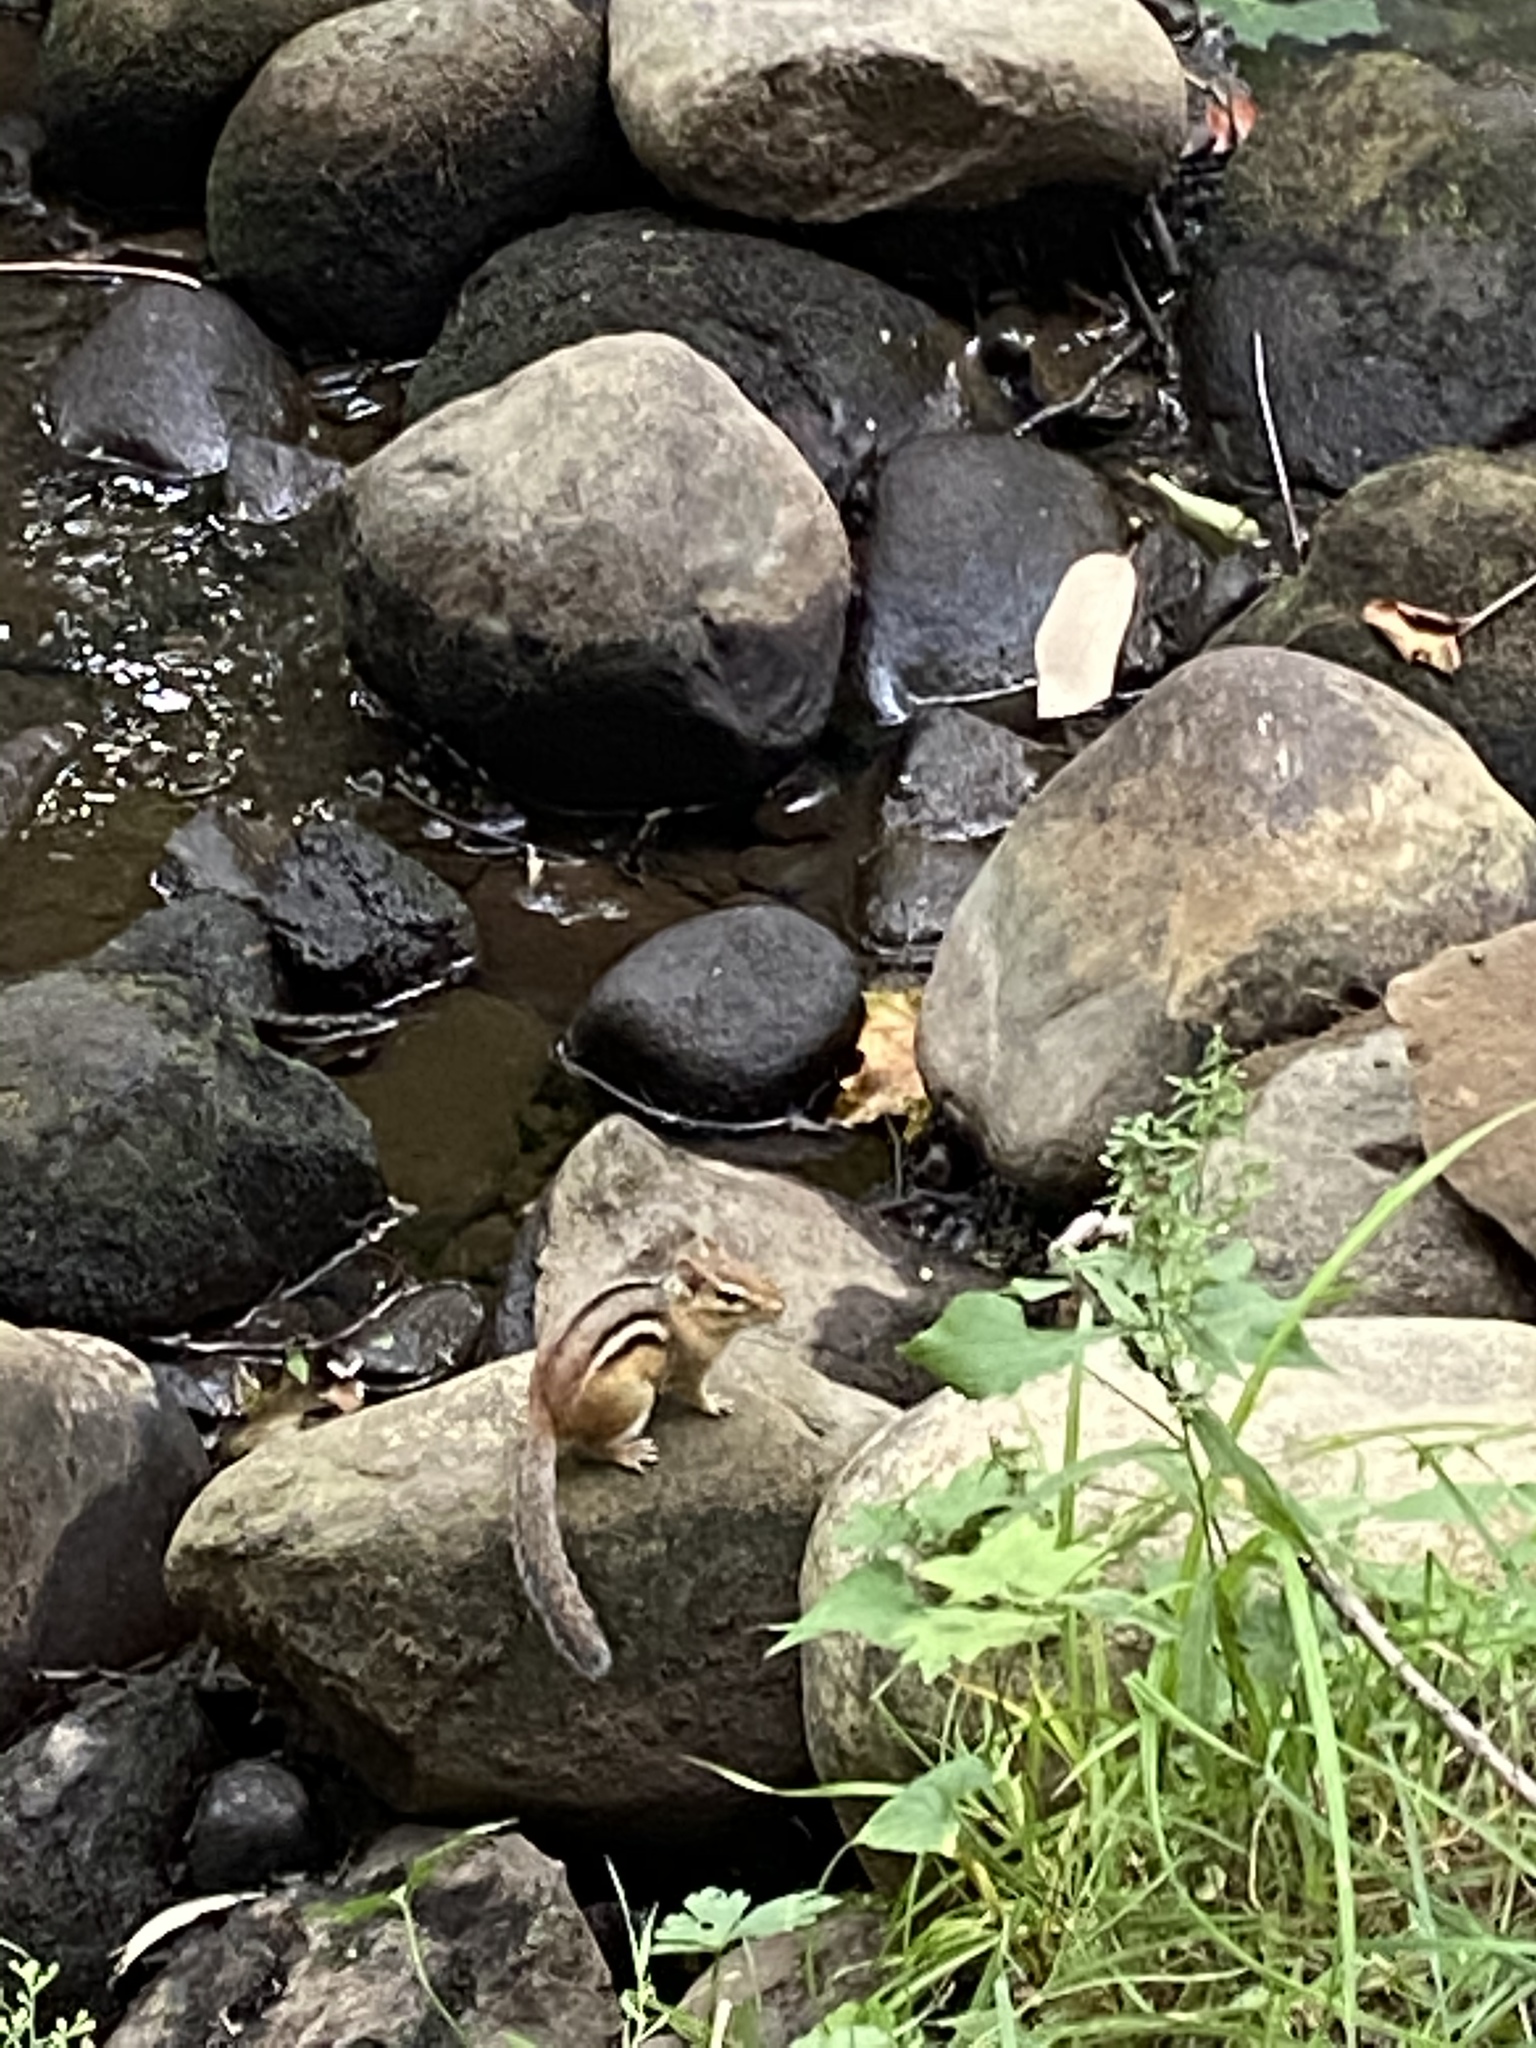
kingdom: Animalia
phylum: Chordata
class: Mammalia
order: Rodentia
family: Sciuridae
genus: Tamias
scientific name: Tamias striatus
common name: Eastern chipmunk
